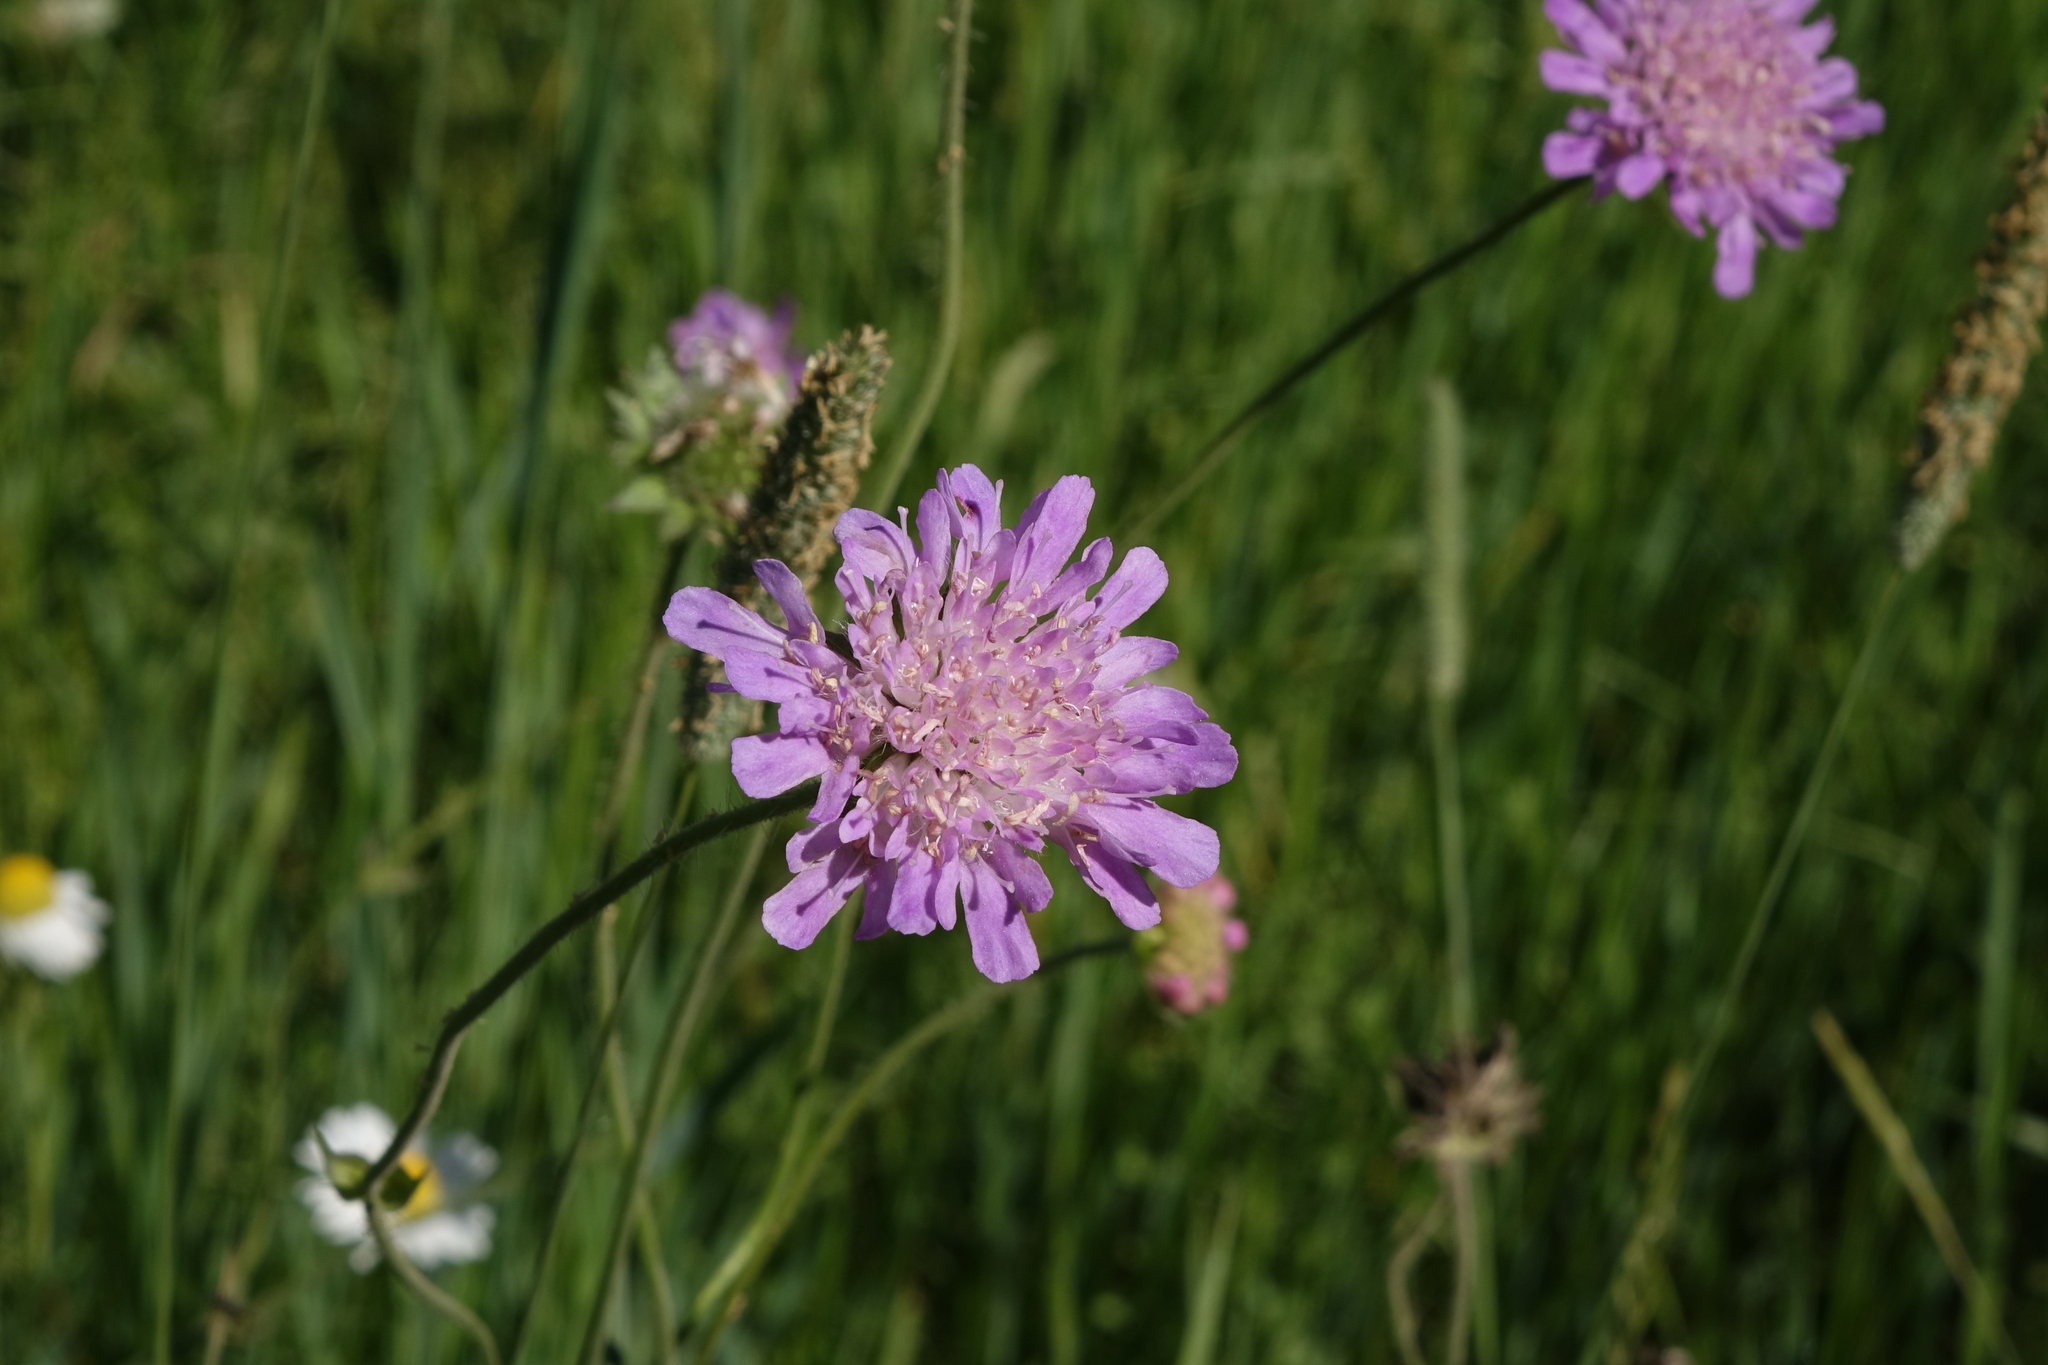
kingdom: Plantae
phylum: Tracheophyta
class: Magnoliopsida
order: Dipsacales
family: Caprifoliaceae
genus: Knautia
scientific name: Knautia arvensis
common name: Field scabiosa
